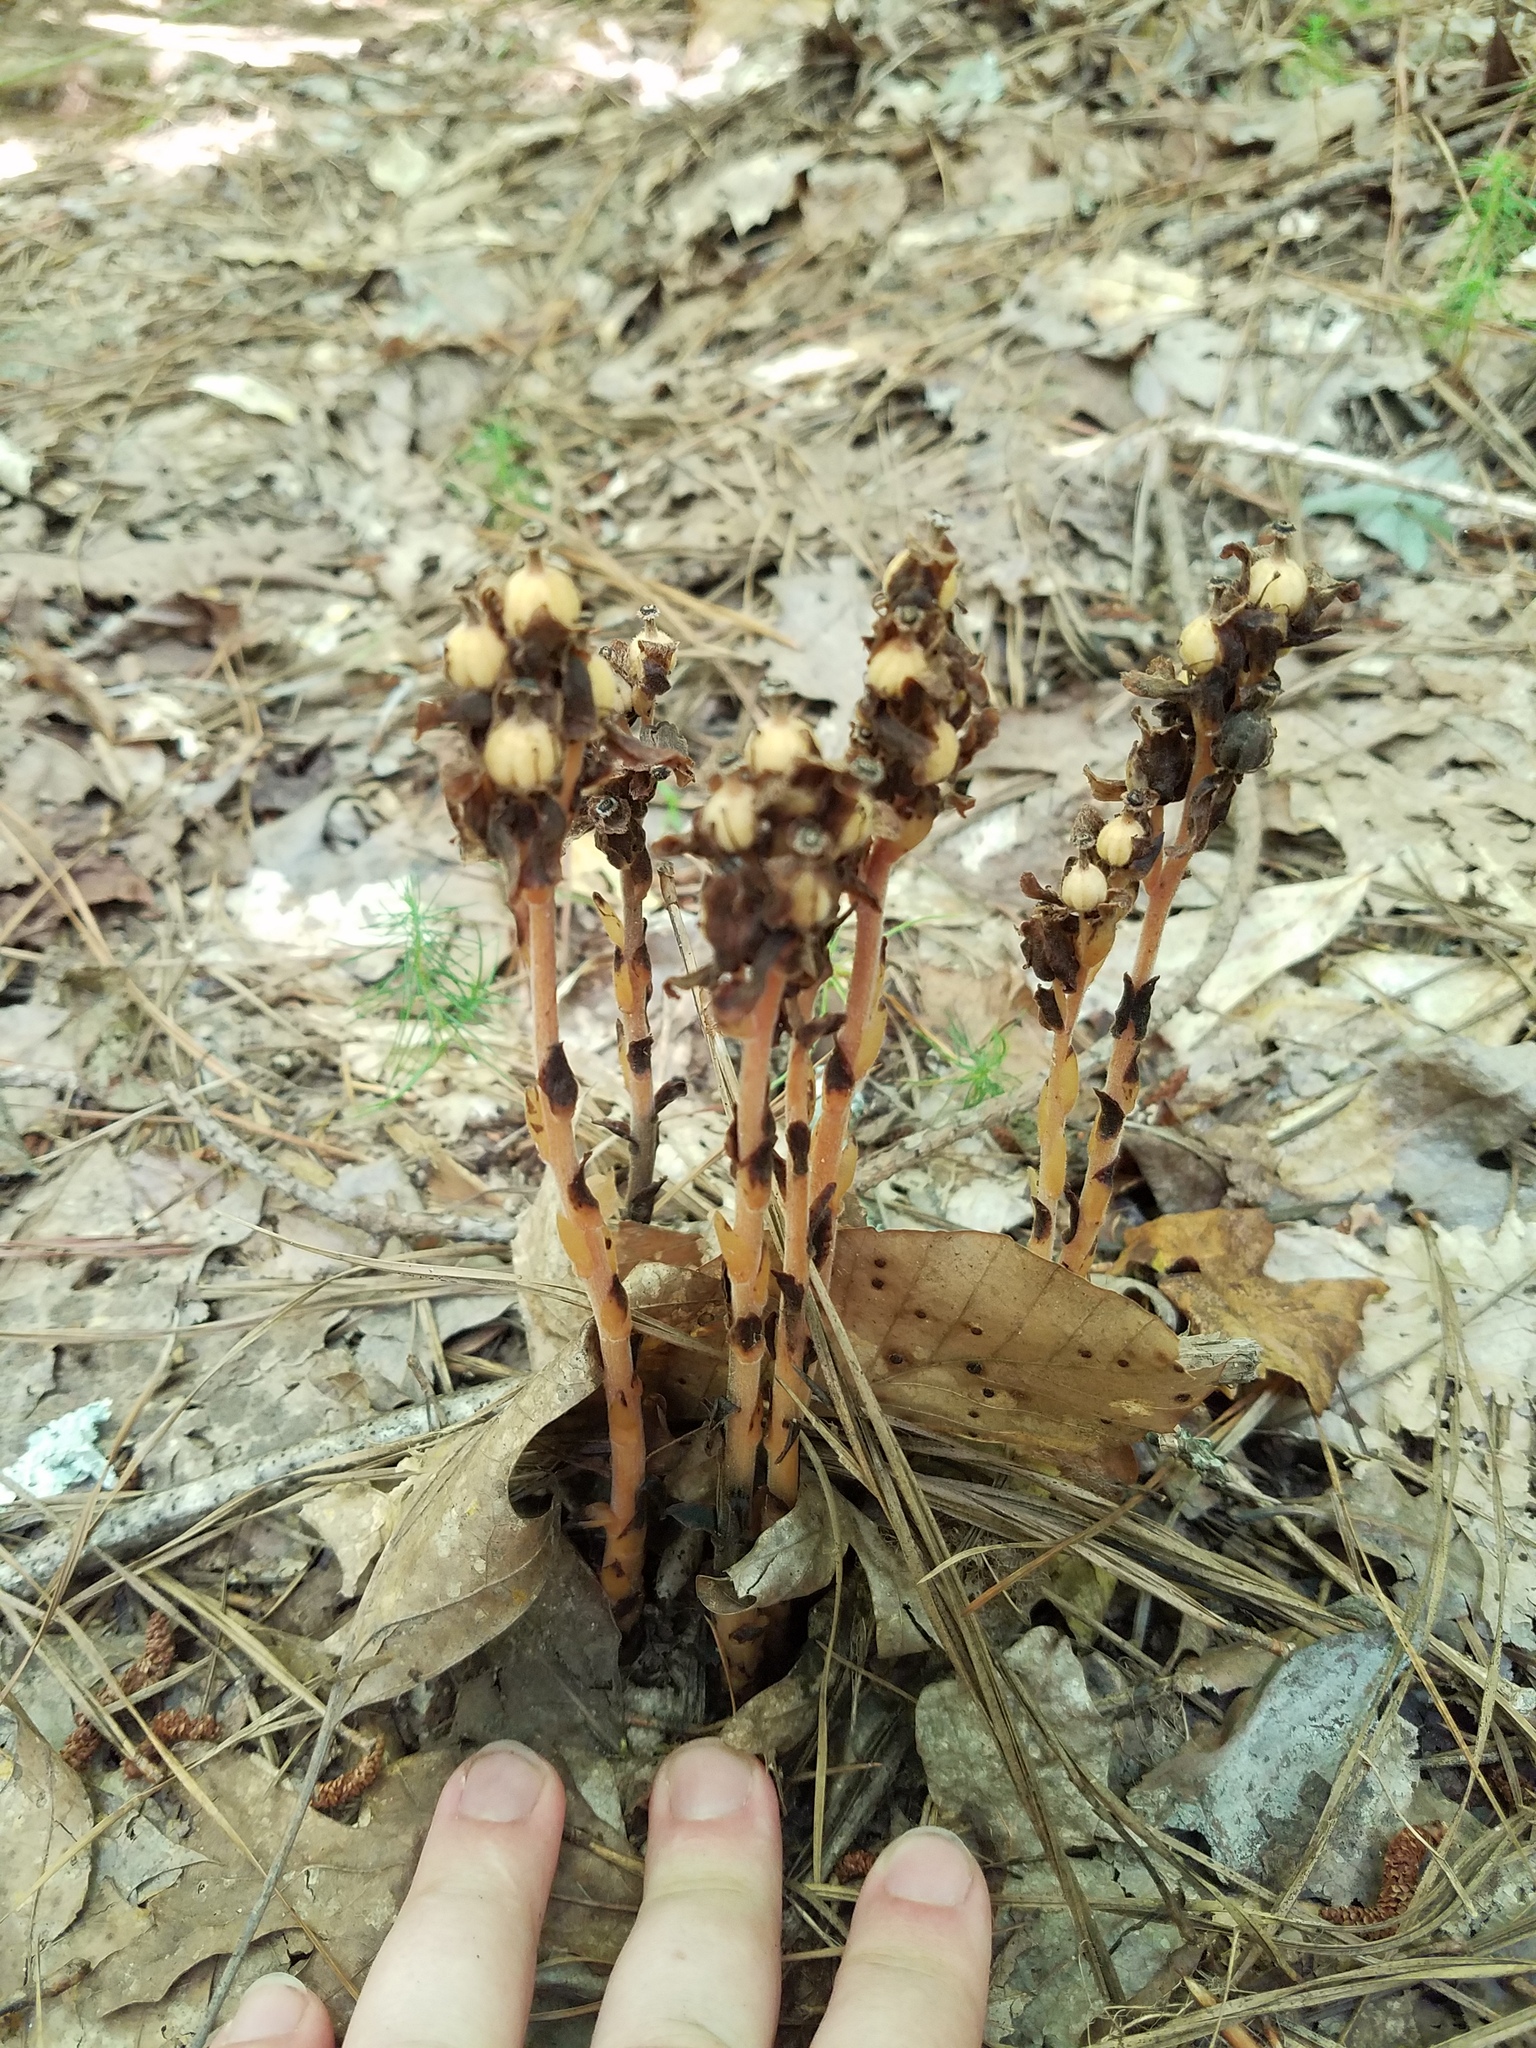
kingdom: Plantae
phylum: Tracheophyta
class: Magnoliopsida
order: Ericales
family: Ericaceae
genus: Hypopitys
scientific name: Hypopitys monotropa
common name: Yellow bird's-nest
